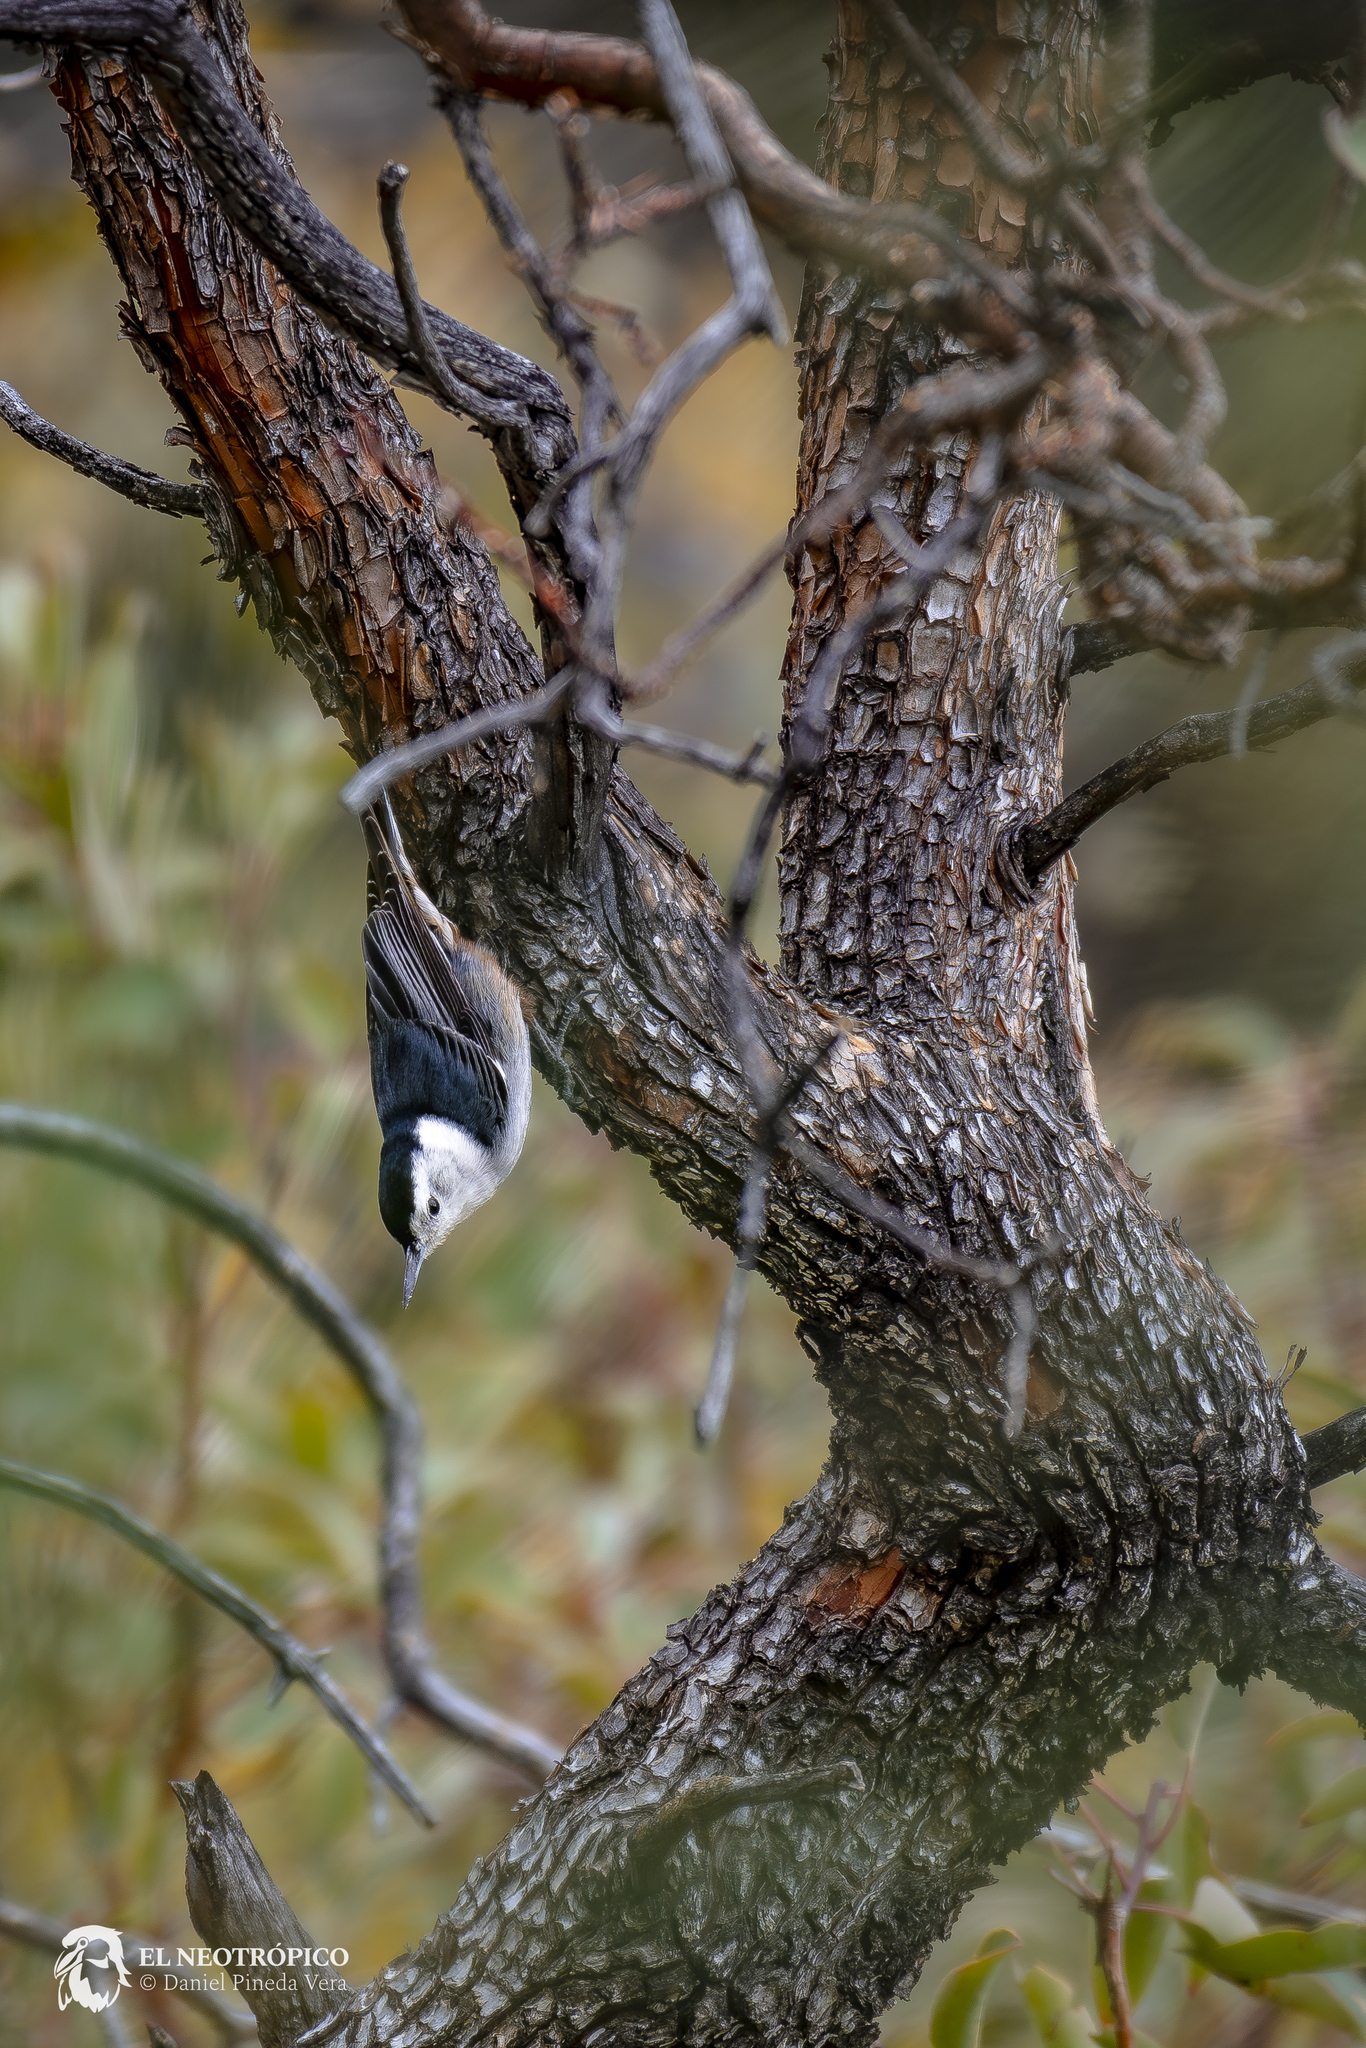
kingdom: Animalia
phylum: Chordata
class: Aves
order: Passeriformes
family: Sittidae
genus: Sitta
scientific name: Sitta carolinensis
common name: White-breasted nuthatch
